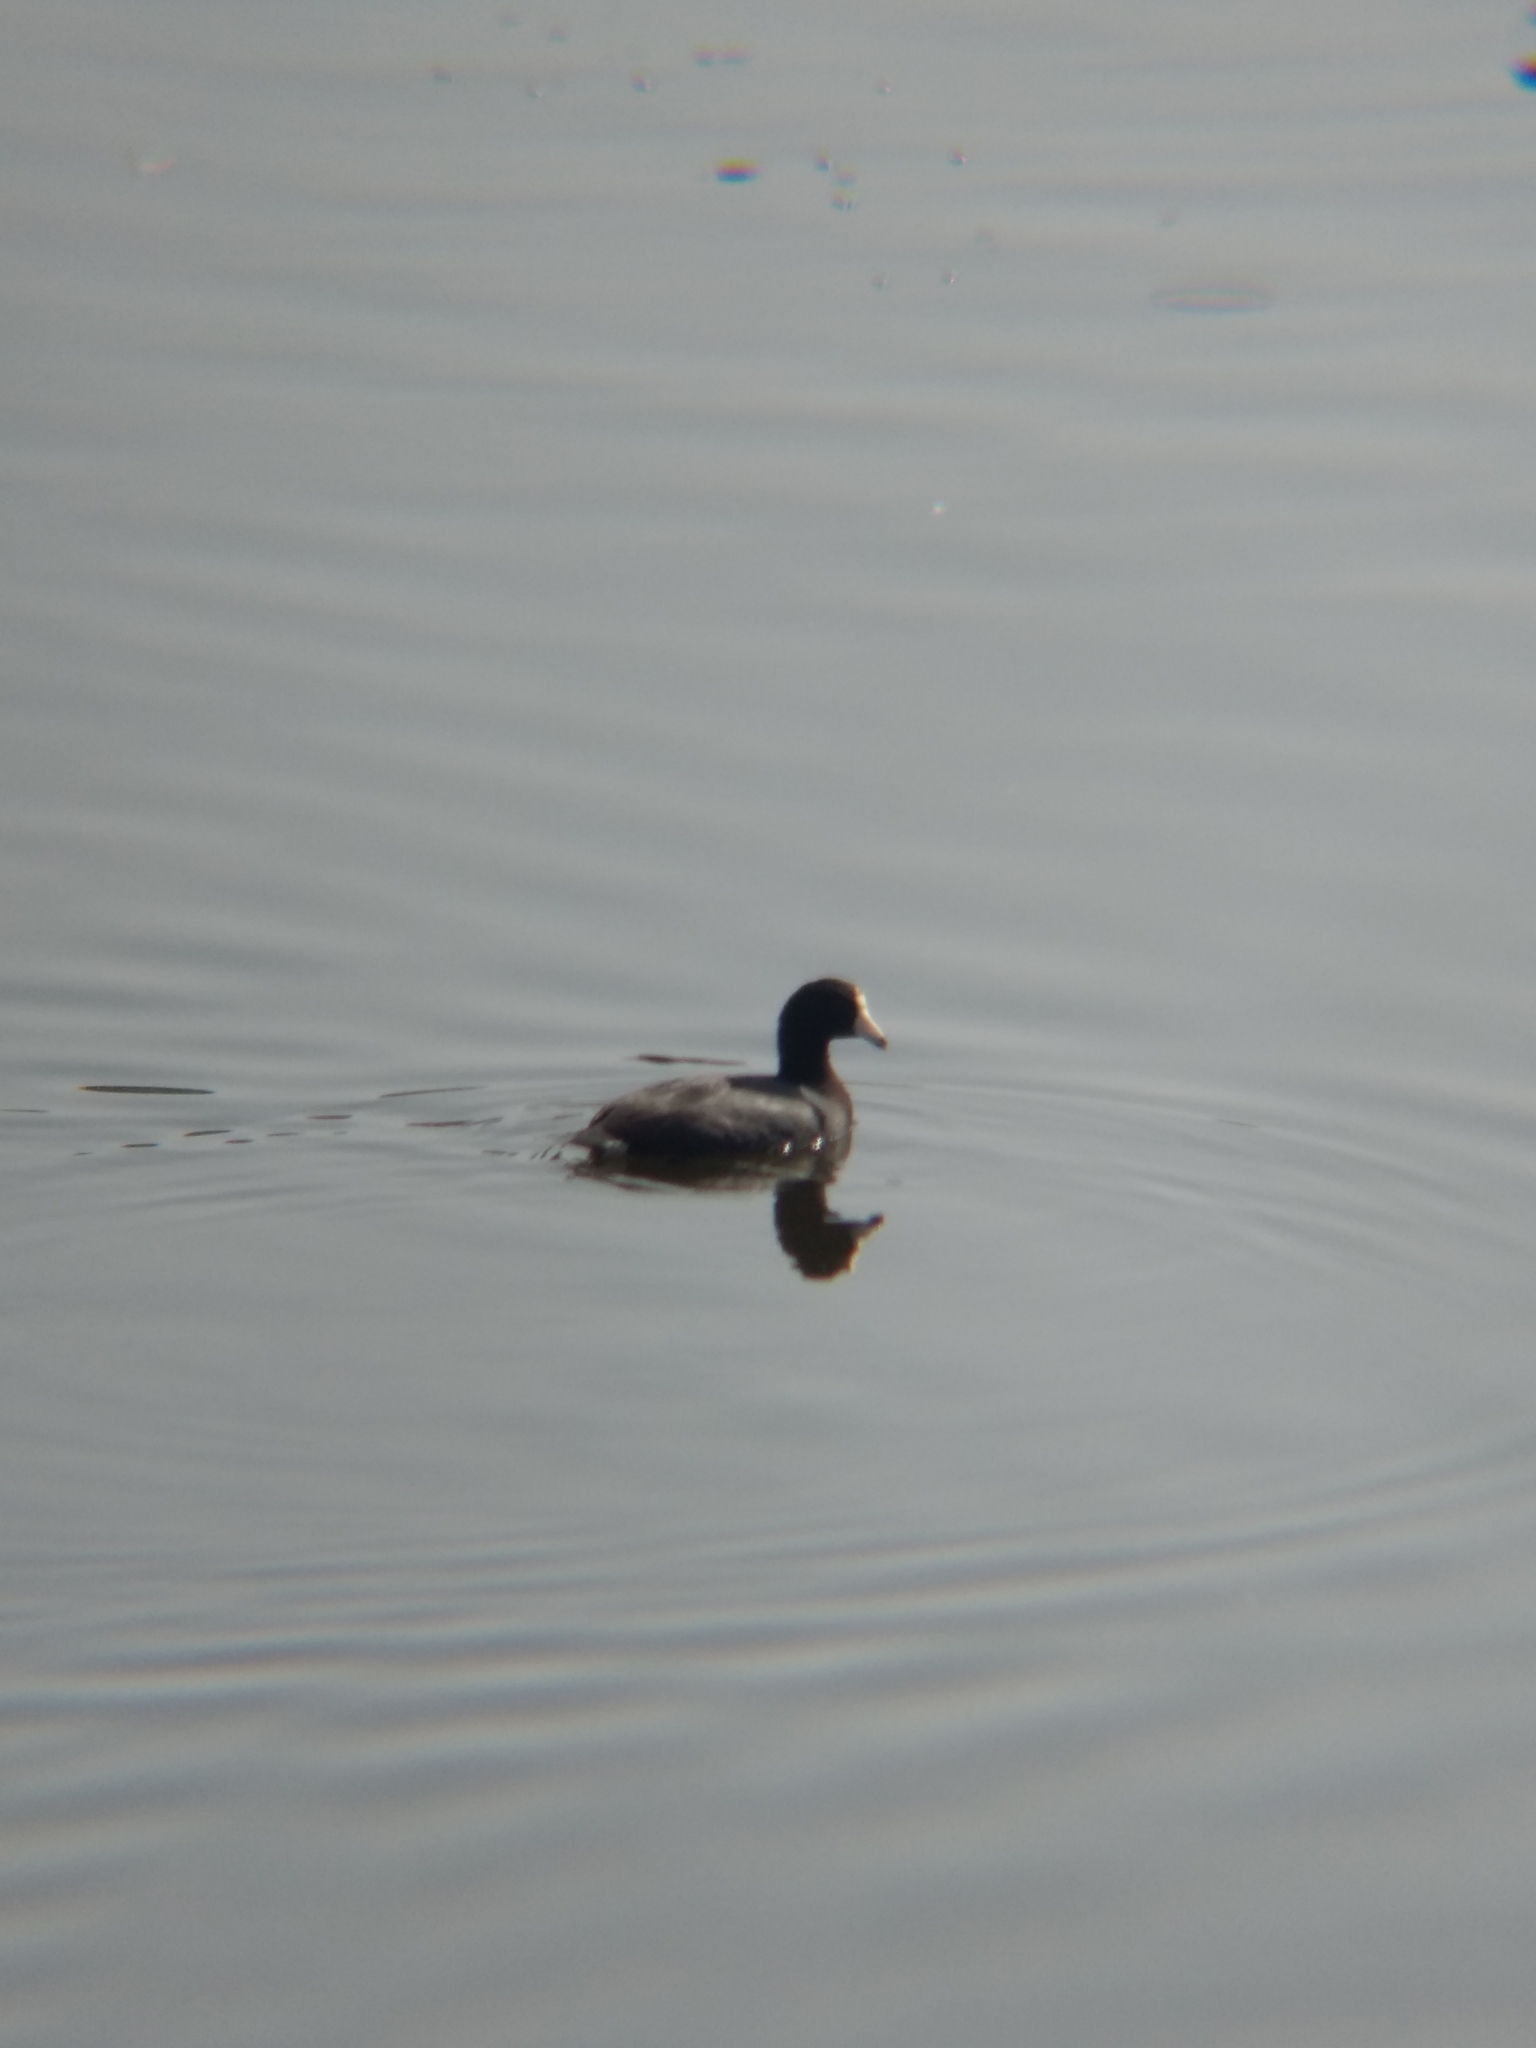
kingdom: Animalia
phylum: Chordata
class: Aves
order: Gruiformes
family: Rallidae
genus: Fulica
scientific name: Fulica americana
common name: American coot
